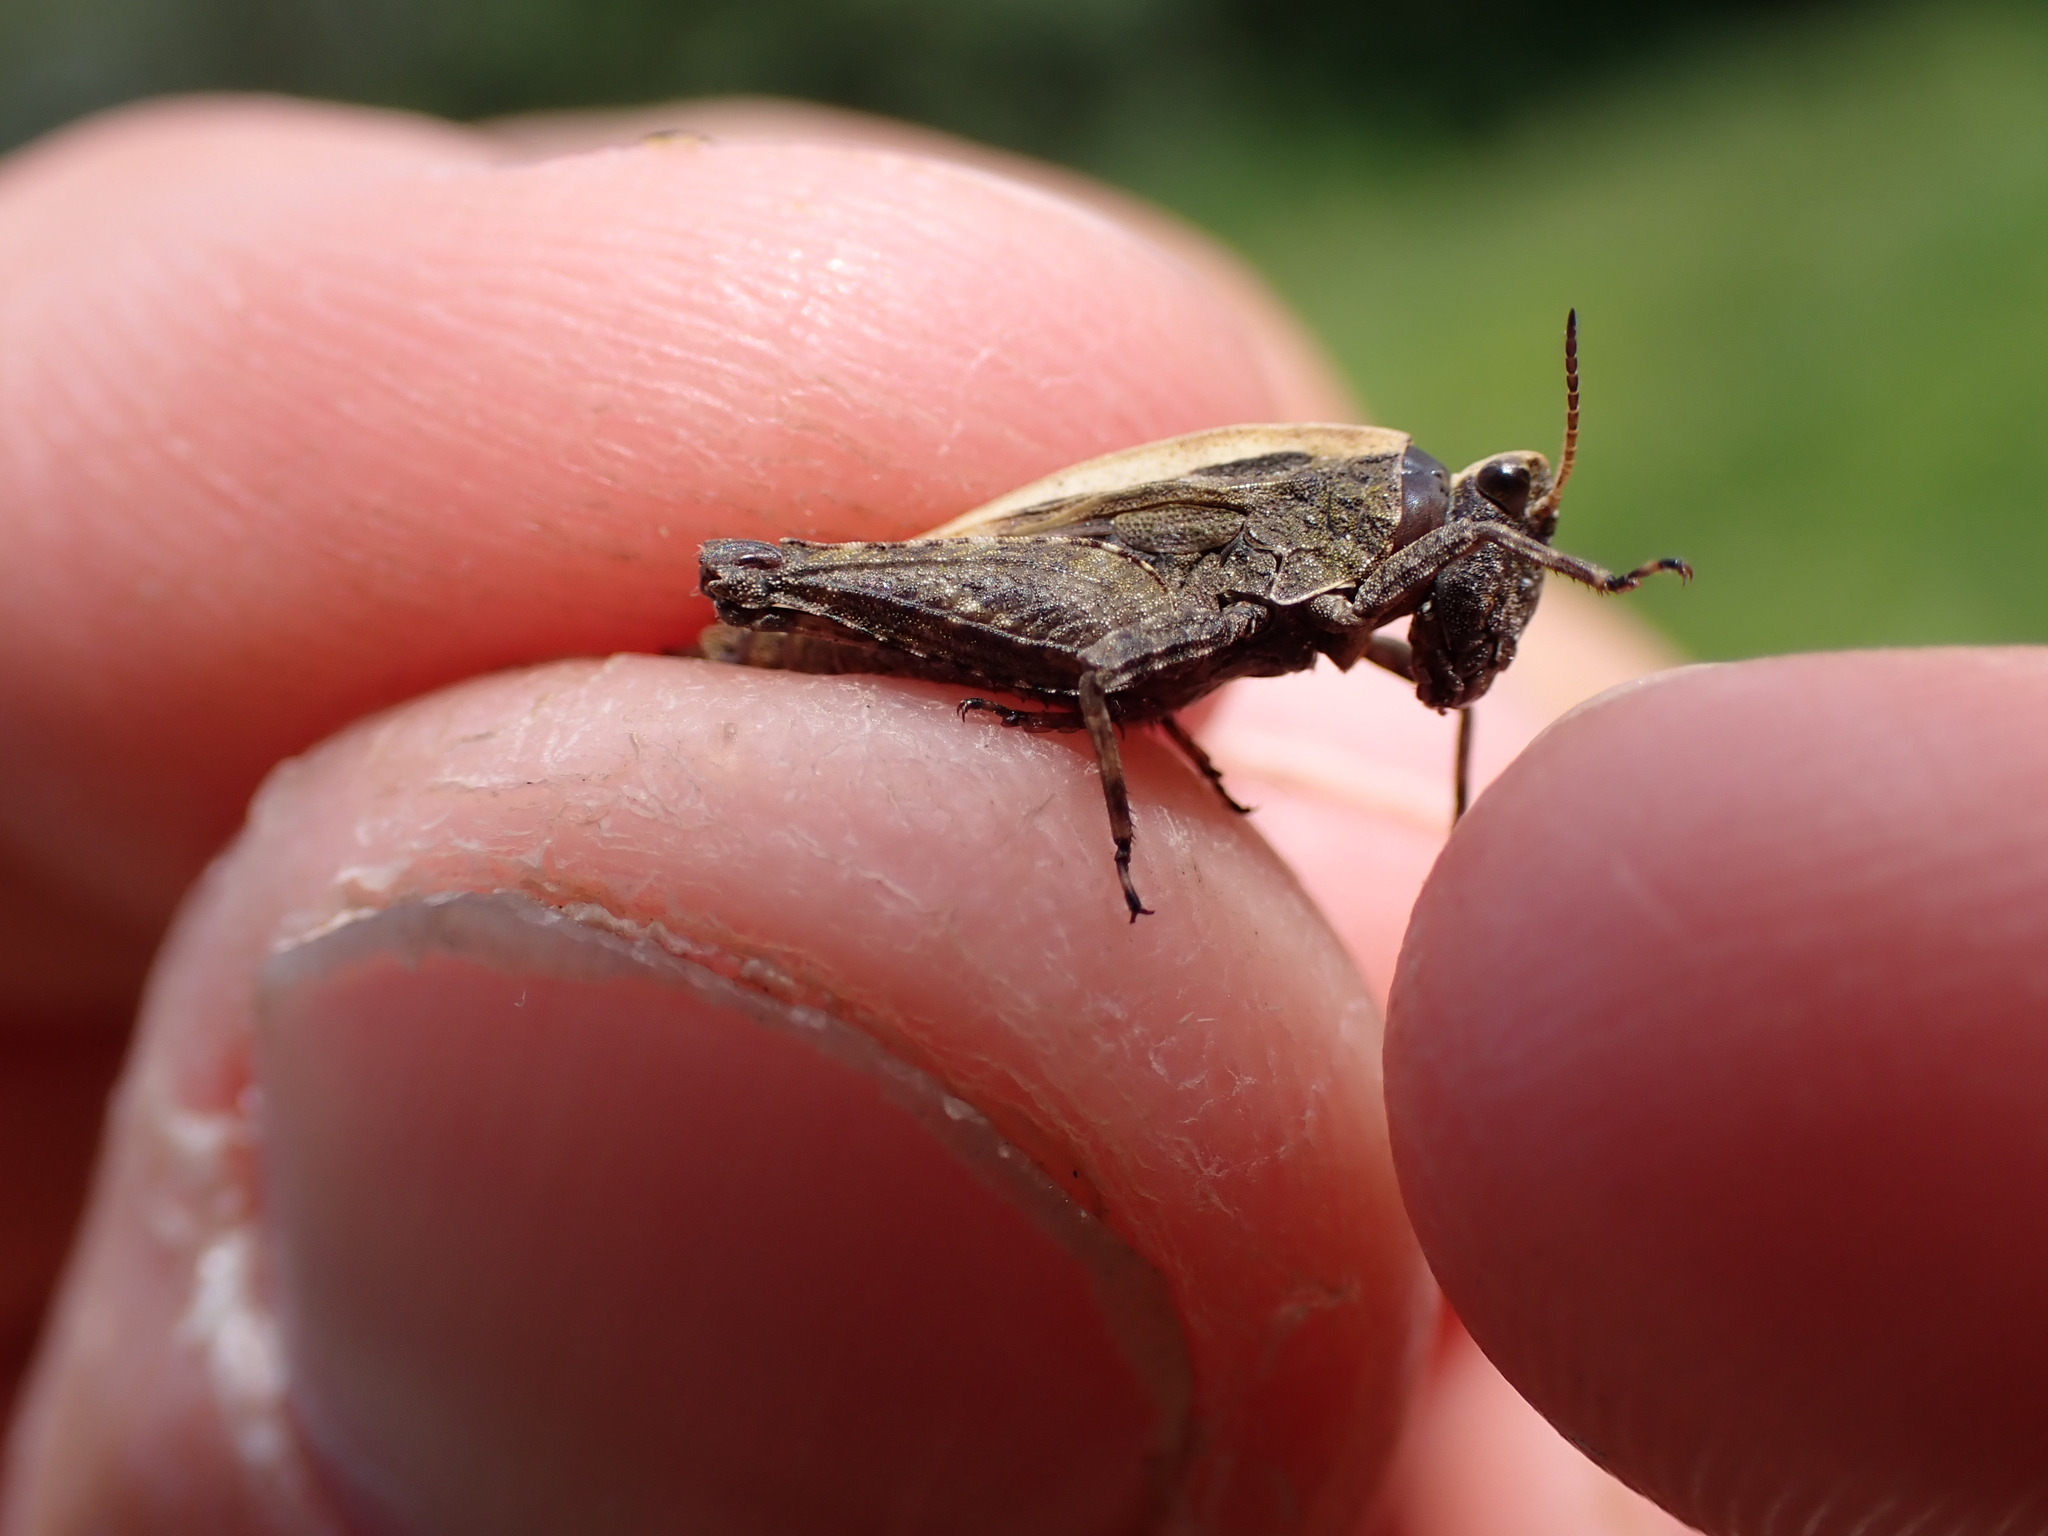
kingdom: Animalia
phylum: Arthropoda
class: Insecta
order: Orthoptera
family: Tetrigidae
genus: Tetrix
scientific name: Tetrix subulata
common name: Slender ground-hopper
